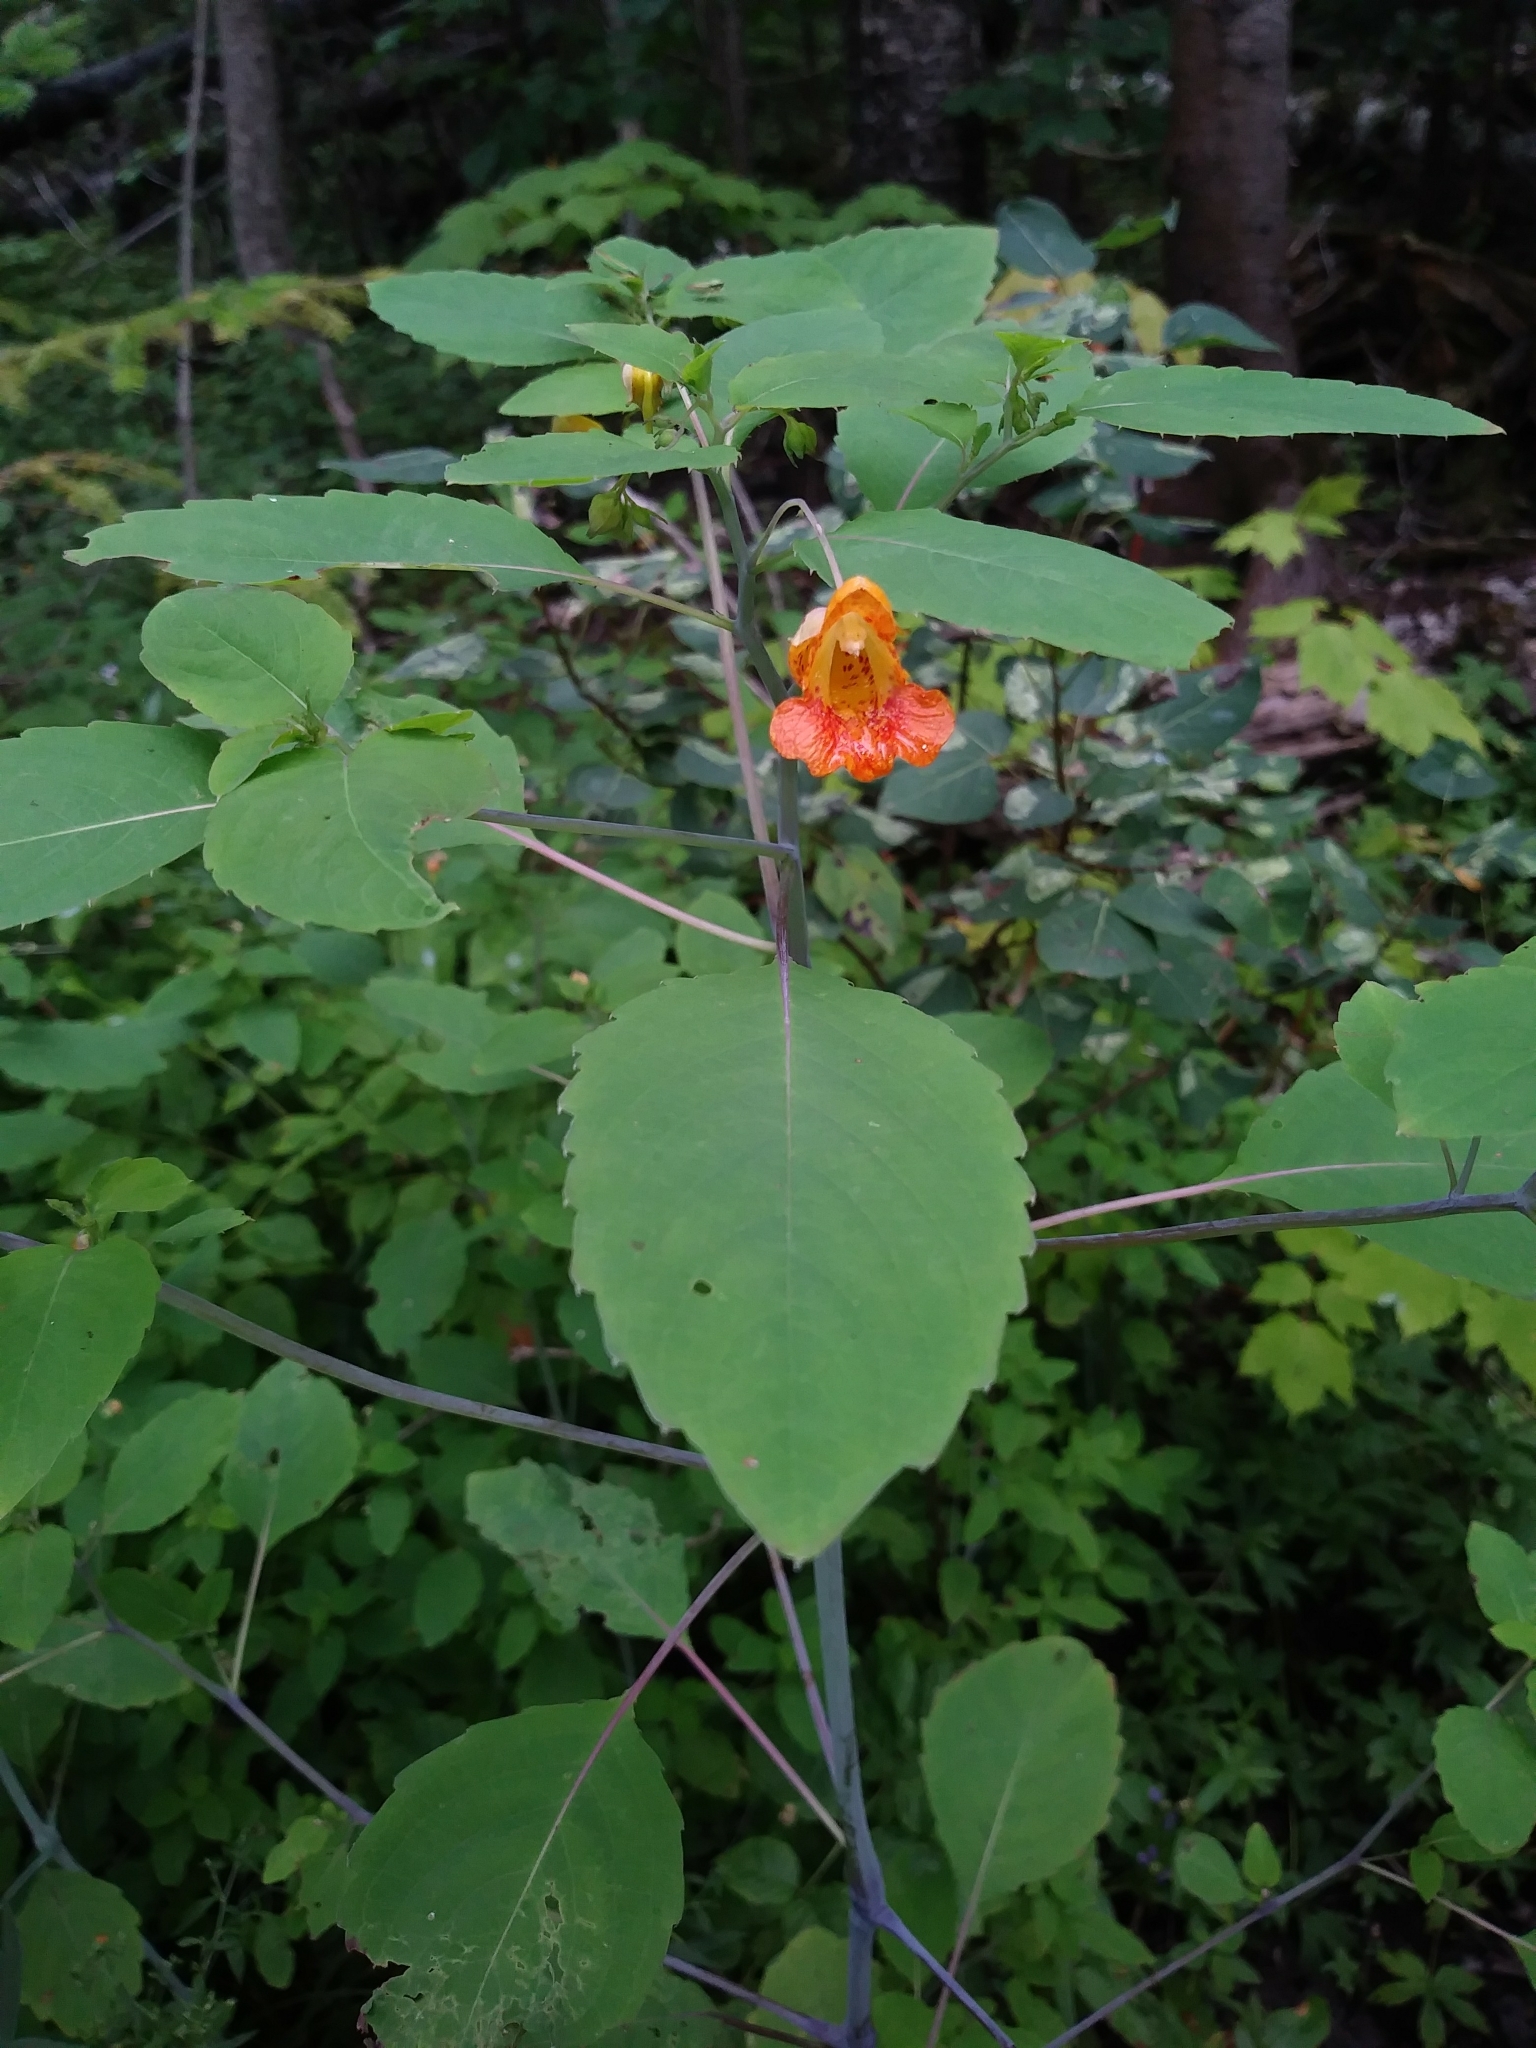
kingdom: Plantae
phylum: Tracheophyta
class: Magnoliopsida
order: Ericales
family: Balsaminaceae
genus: Impatiens
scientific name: Impatiens capensis
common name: Orange balsam
